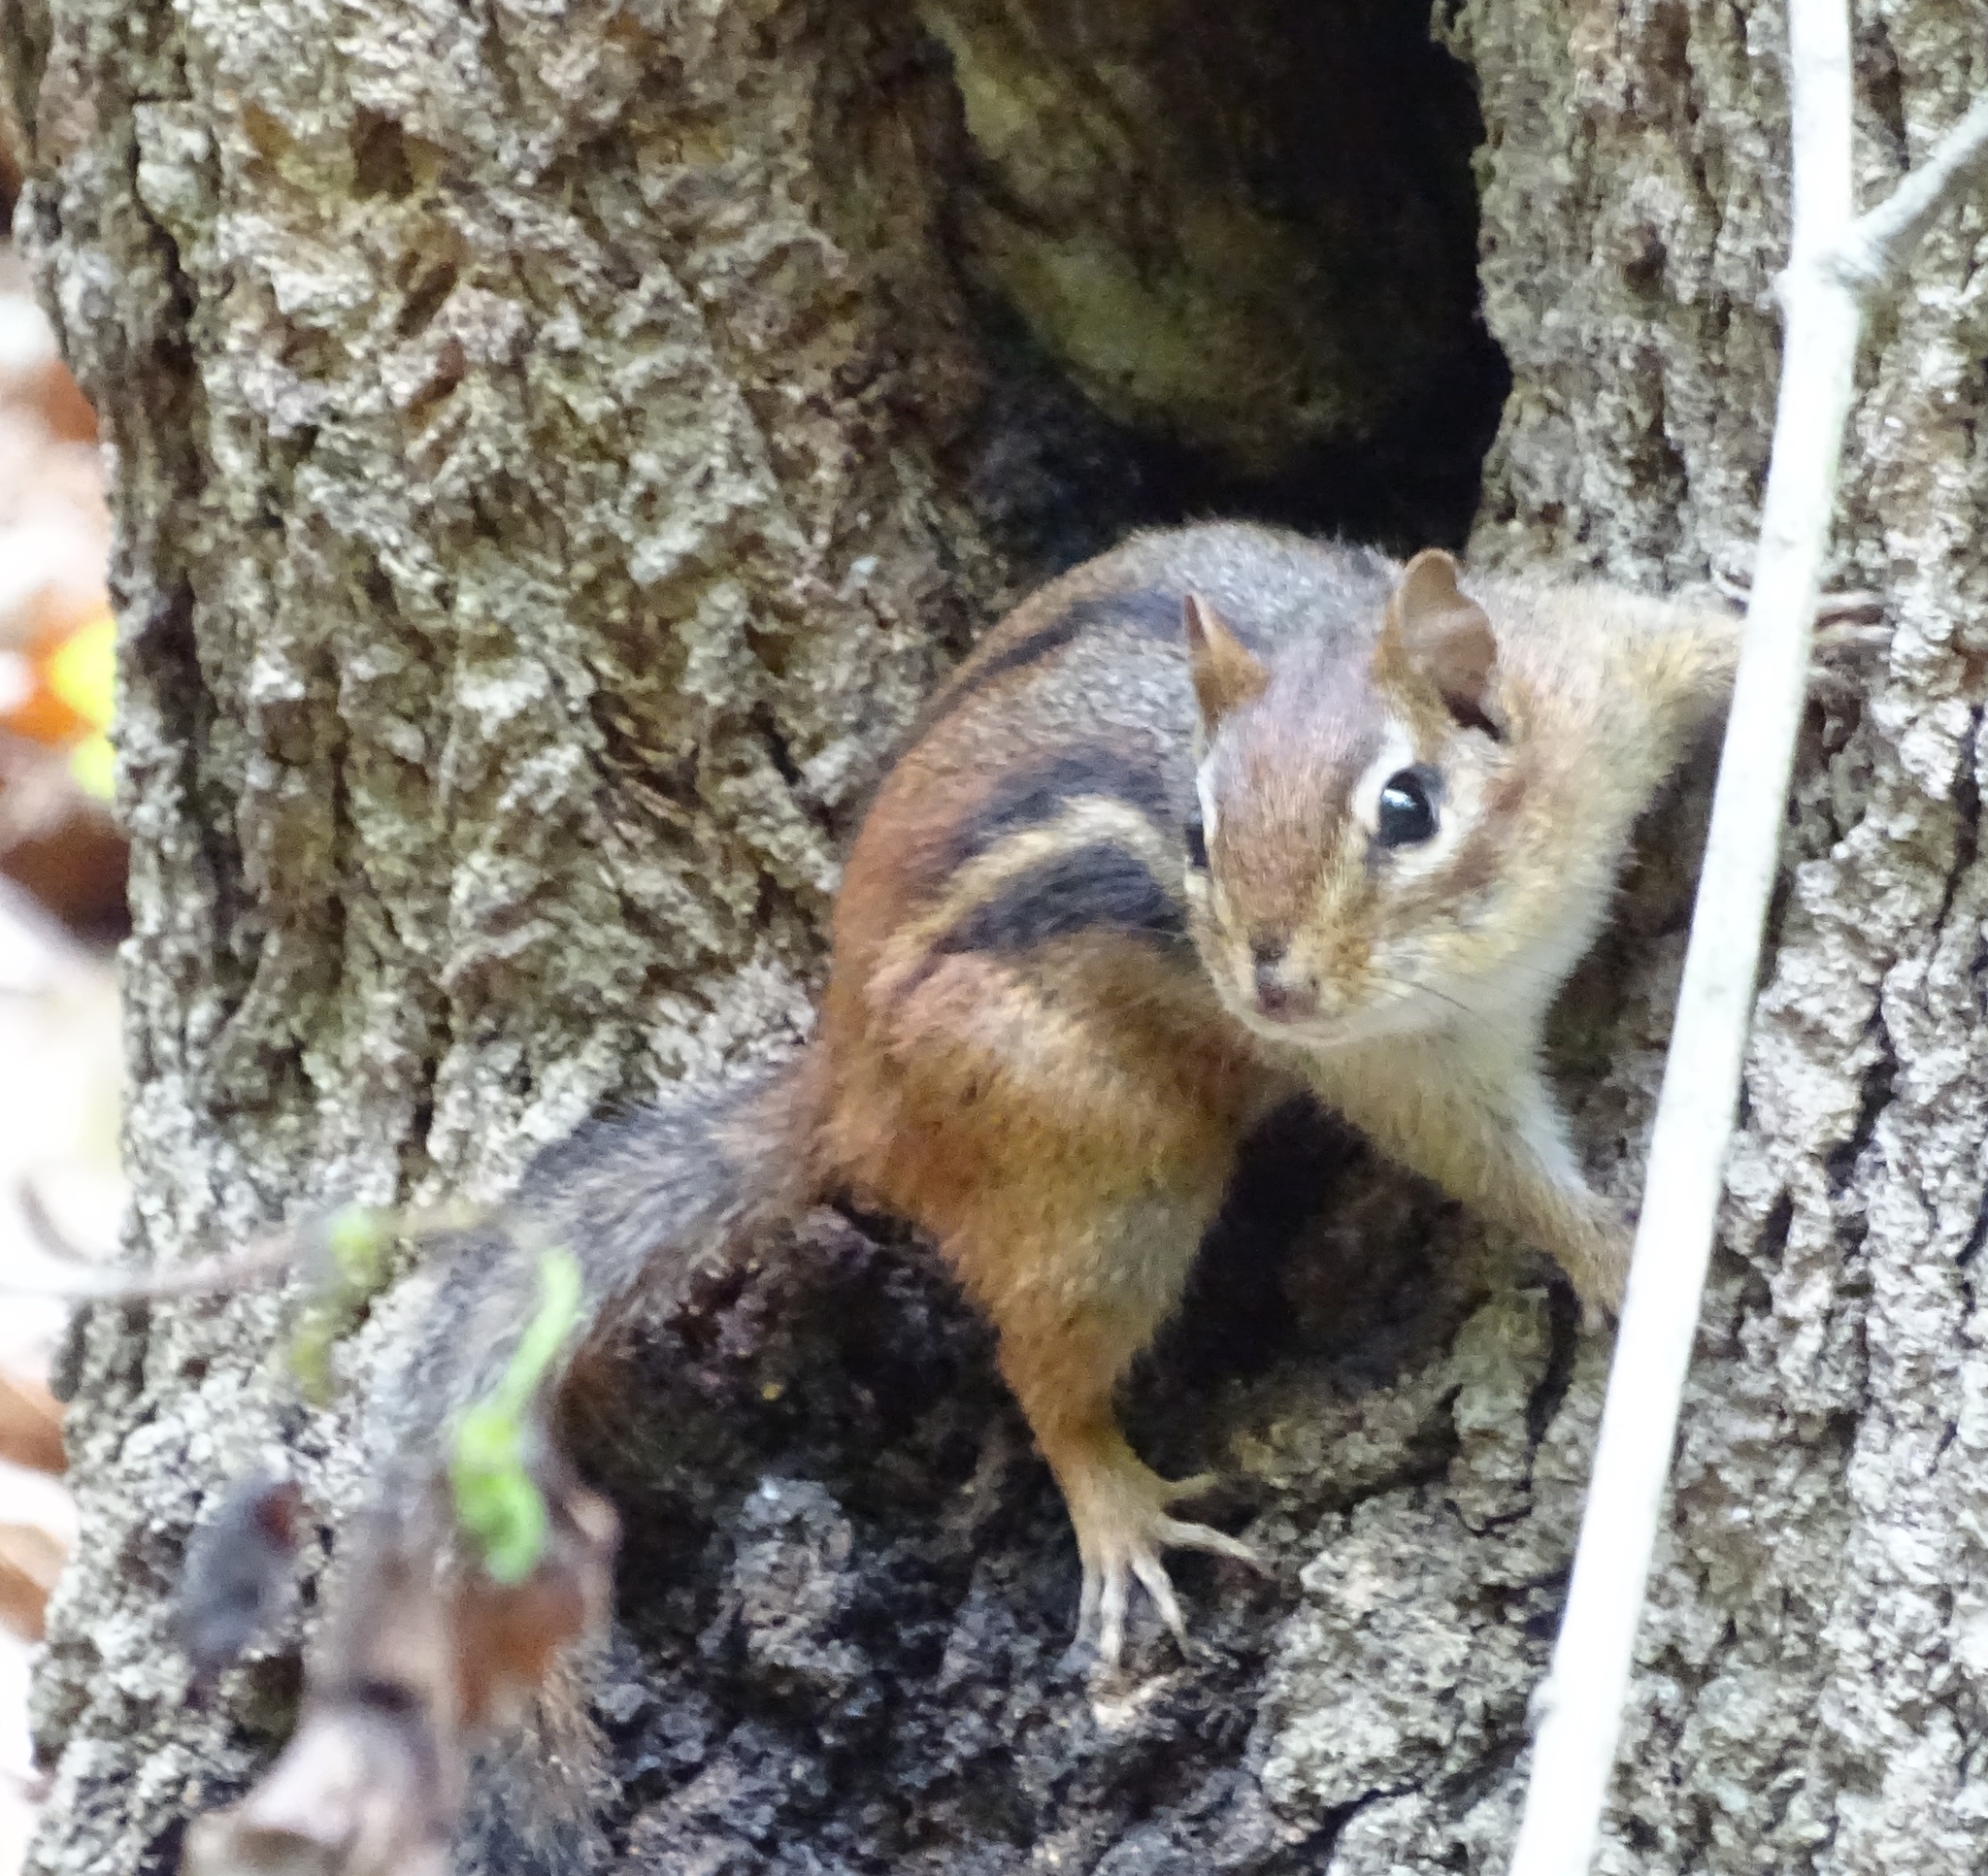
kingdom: Animalia
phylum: Chordata
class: Mammalia
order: Rodentia
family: Sciuridae
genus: Tamias
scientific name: Tamias striatus
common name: Eastern chipmunk
